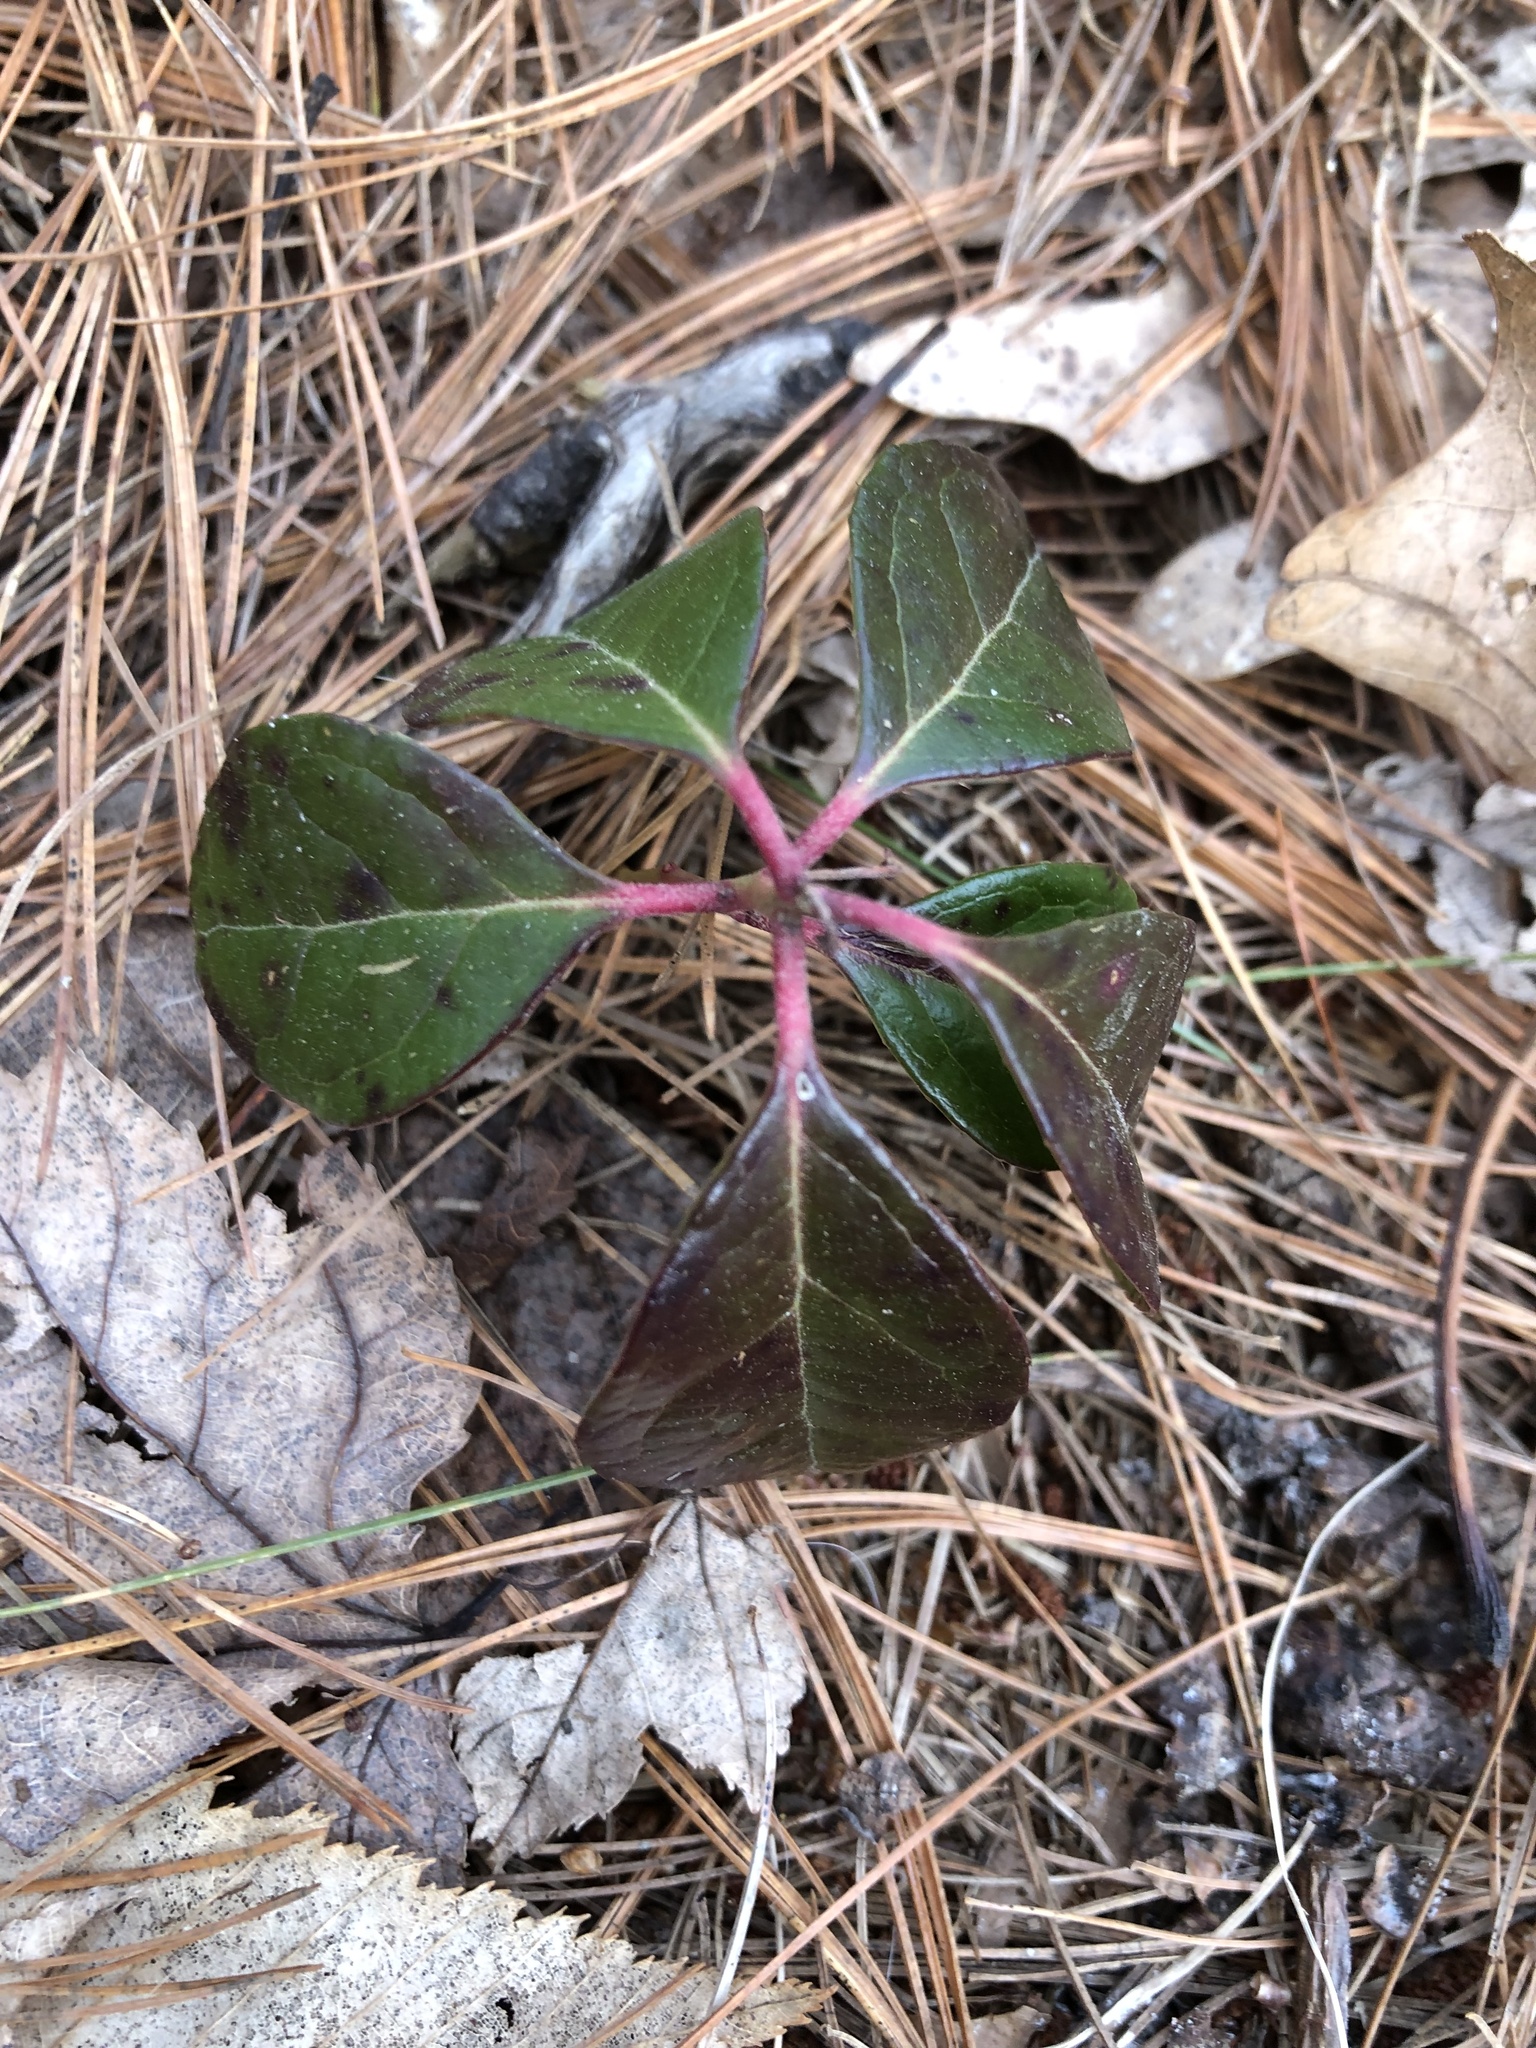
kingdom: Plantae
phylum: Tracheophyta
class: Magnoliopsida
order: Ericales
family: Ericaceae
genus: Gaultheria
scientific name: Gaultheria procumbens
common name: Checkerberry
